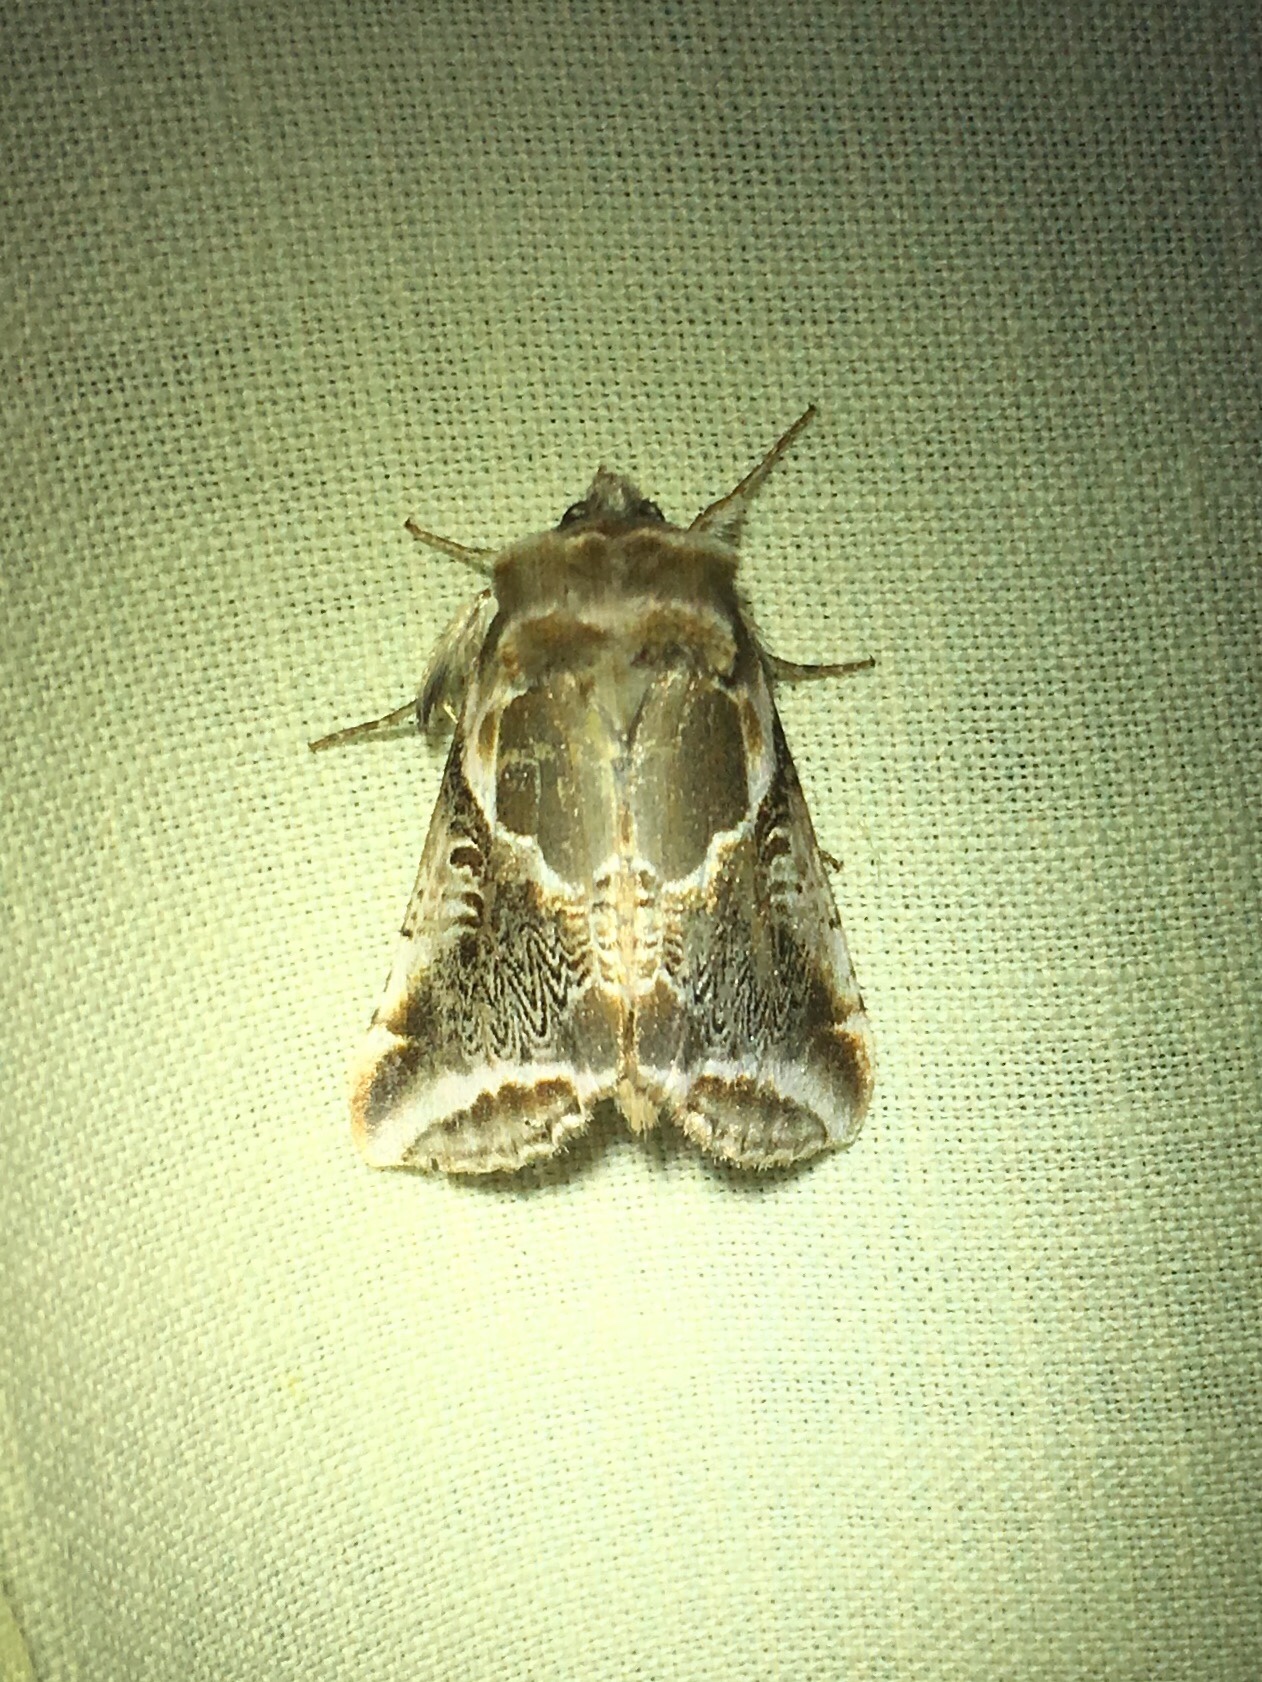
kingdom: Animalia
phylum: Arthropoda
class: Insecta
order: Lepidoptera
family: Drepanidae
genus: Habrosyne
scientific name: Habrosyne scripta
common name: Lettered habrosyne moth
